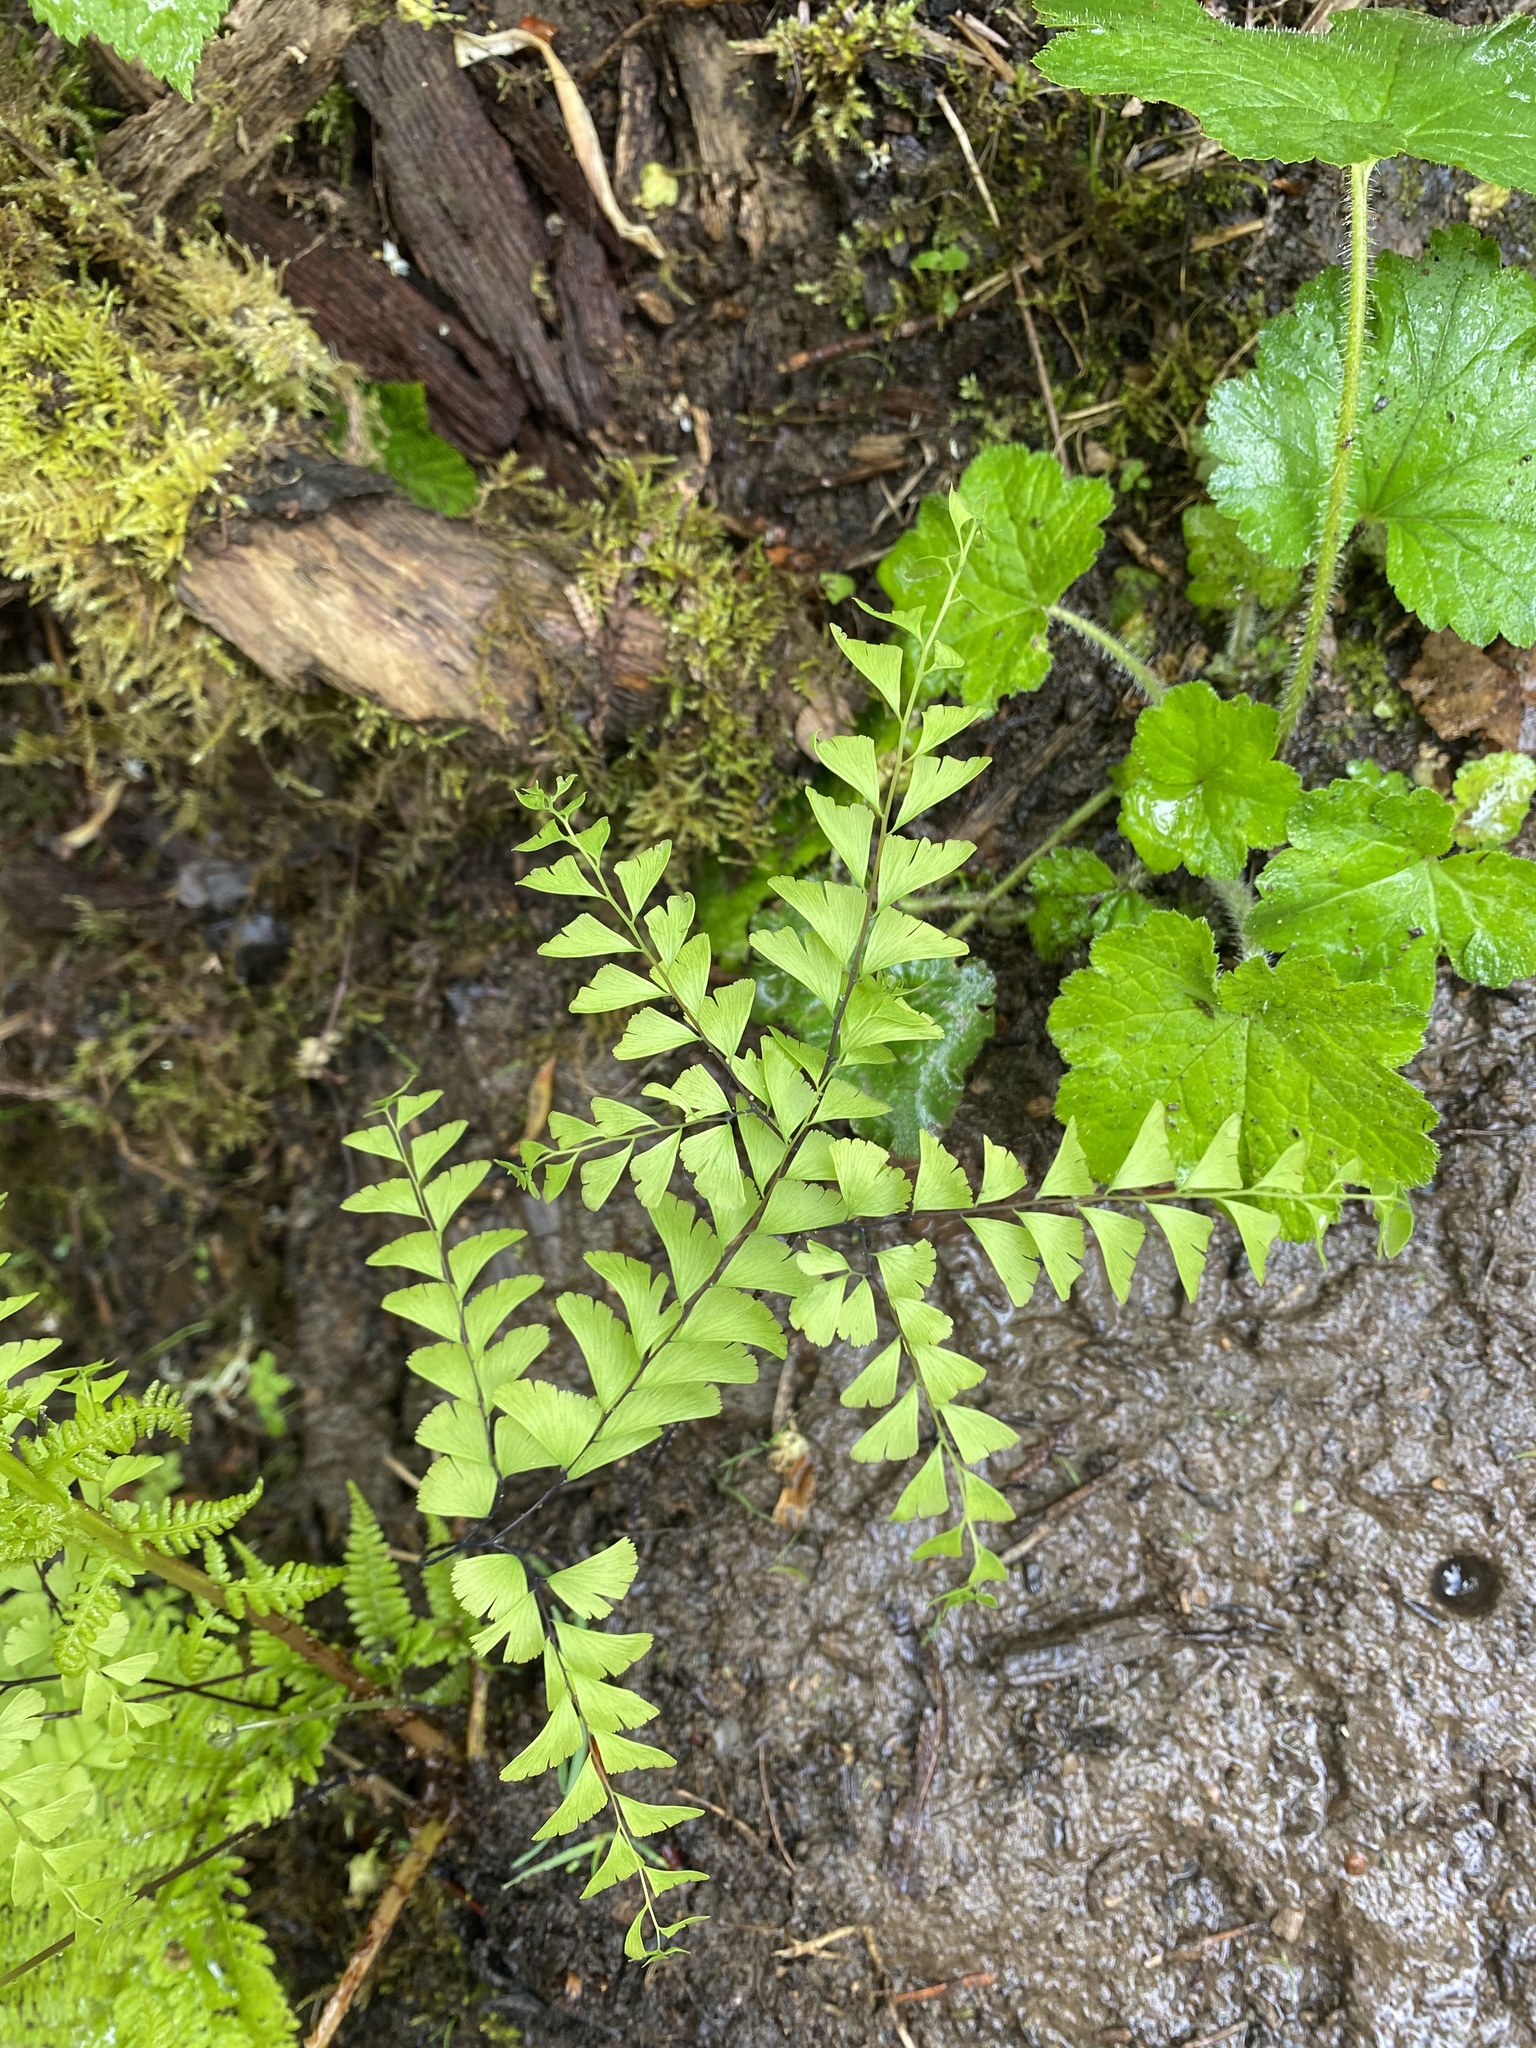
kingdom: Plantae
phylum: Tracheophyta
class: Polypodiopsida
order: Polypodiales
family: Pteridaceae
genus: Adiantum
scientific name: Adiantum aleuticum
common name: Aleutian maidenhair fern
